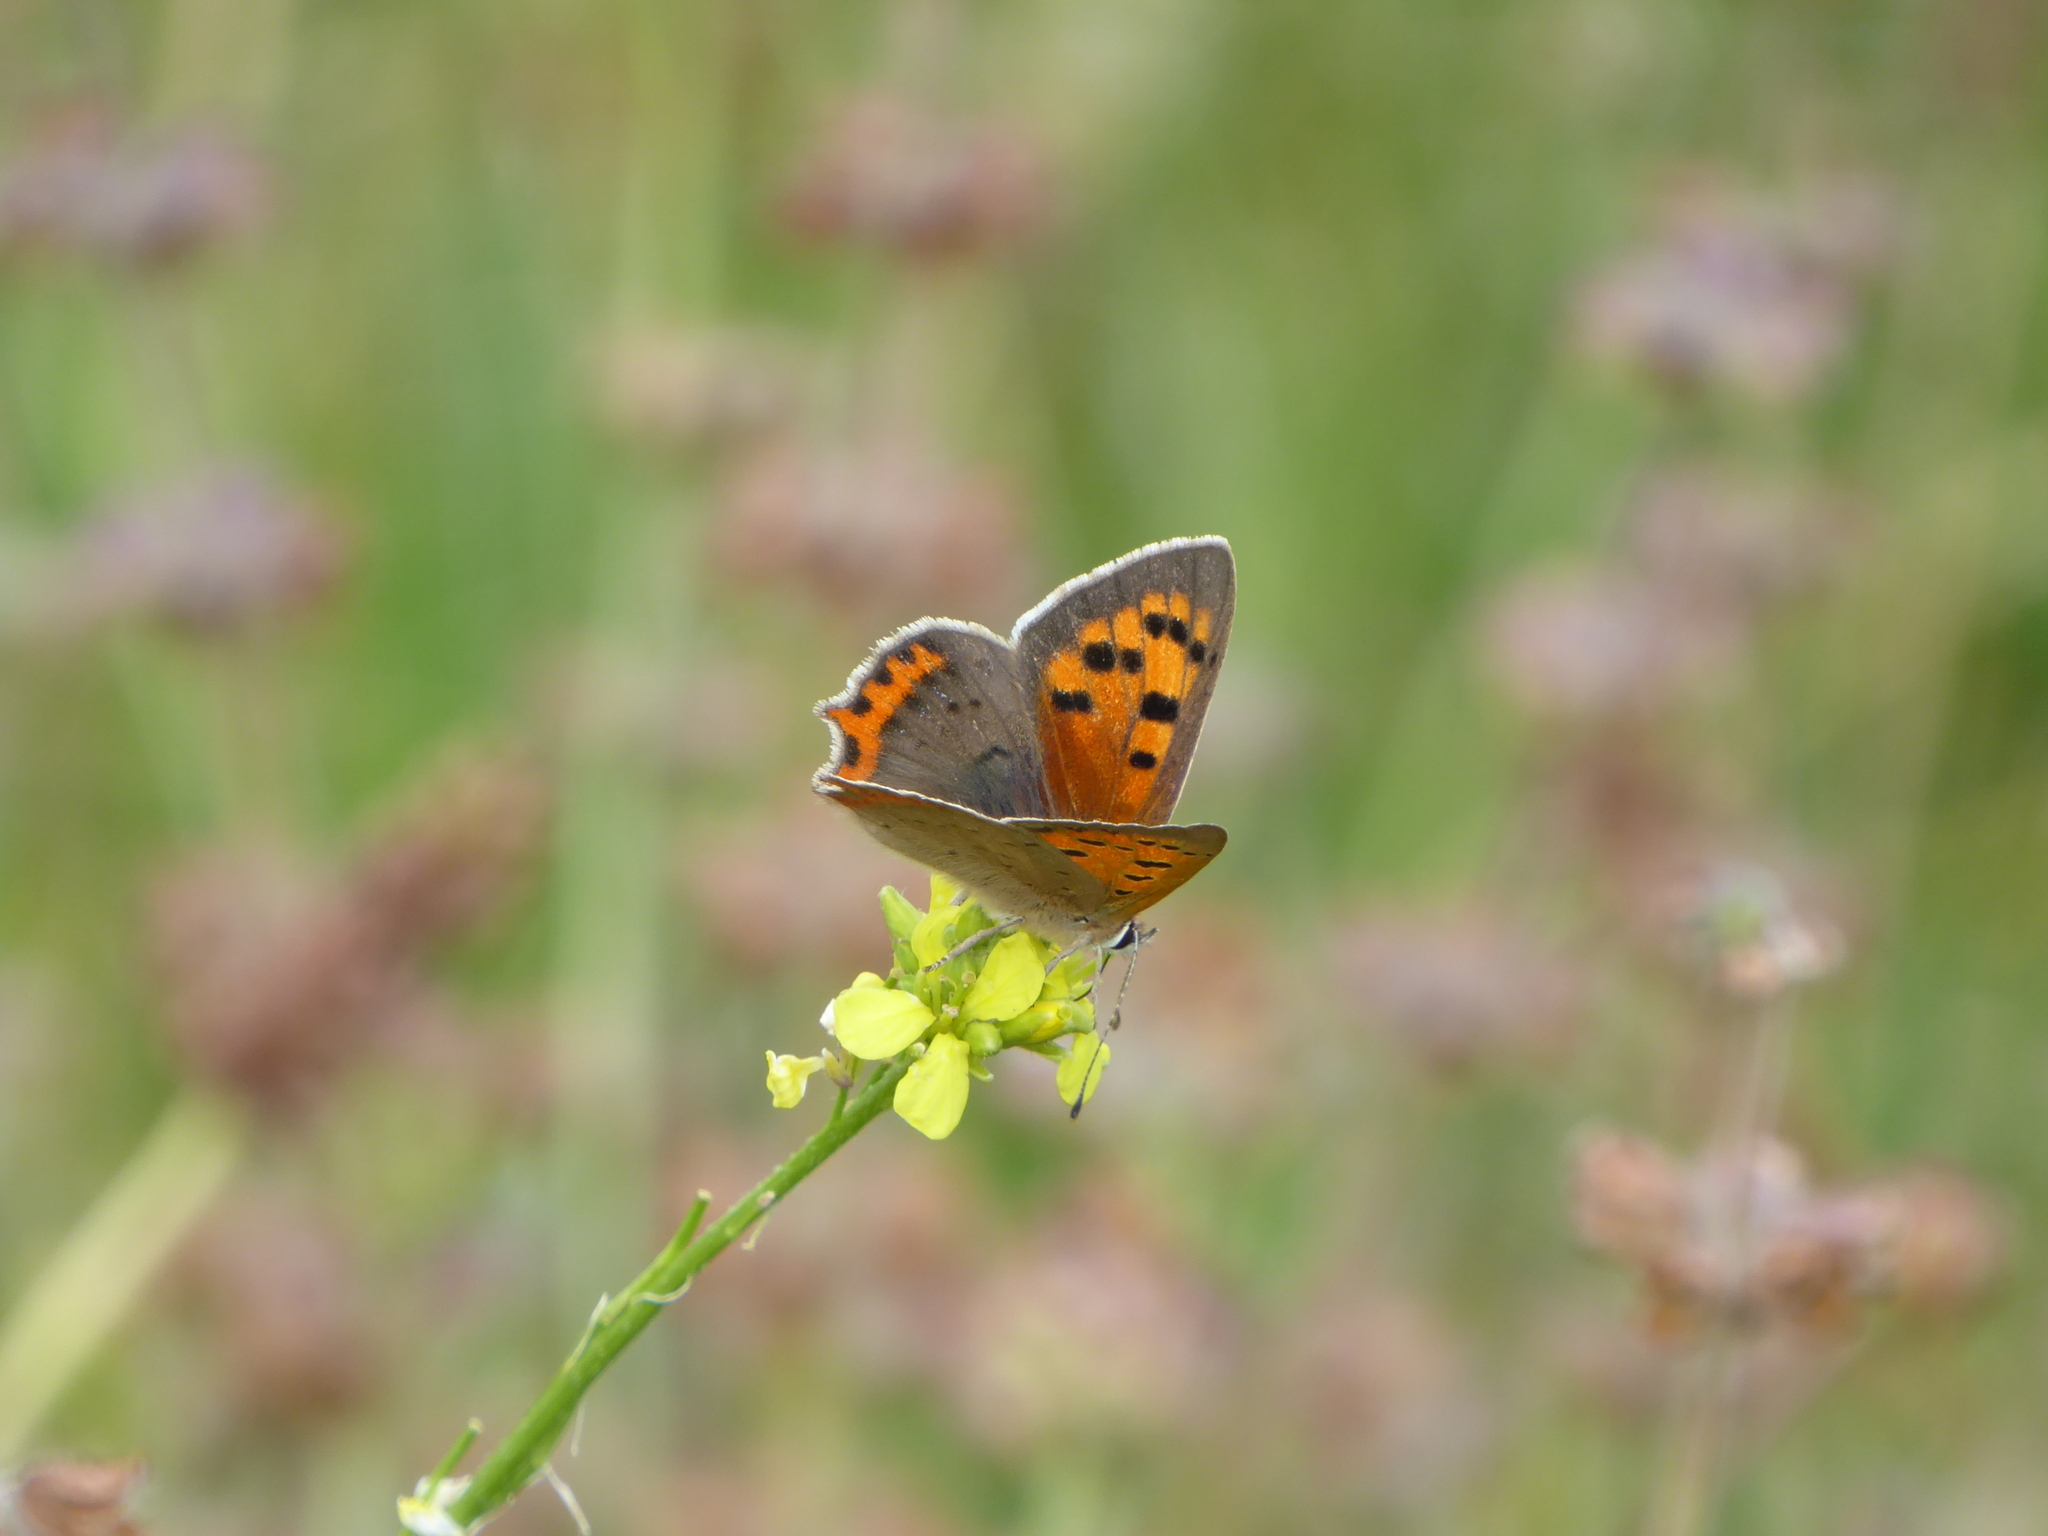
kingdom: Animalia
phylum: Arthropoda
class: Insecta
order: Lepidoptera
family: Lycaenidae
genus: Lycaena
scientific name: Lycaena phlaeas
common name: Small copper
